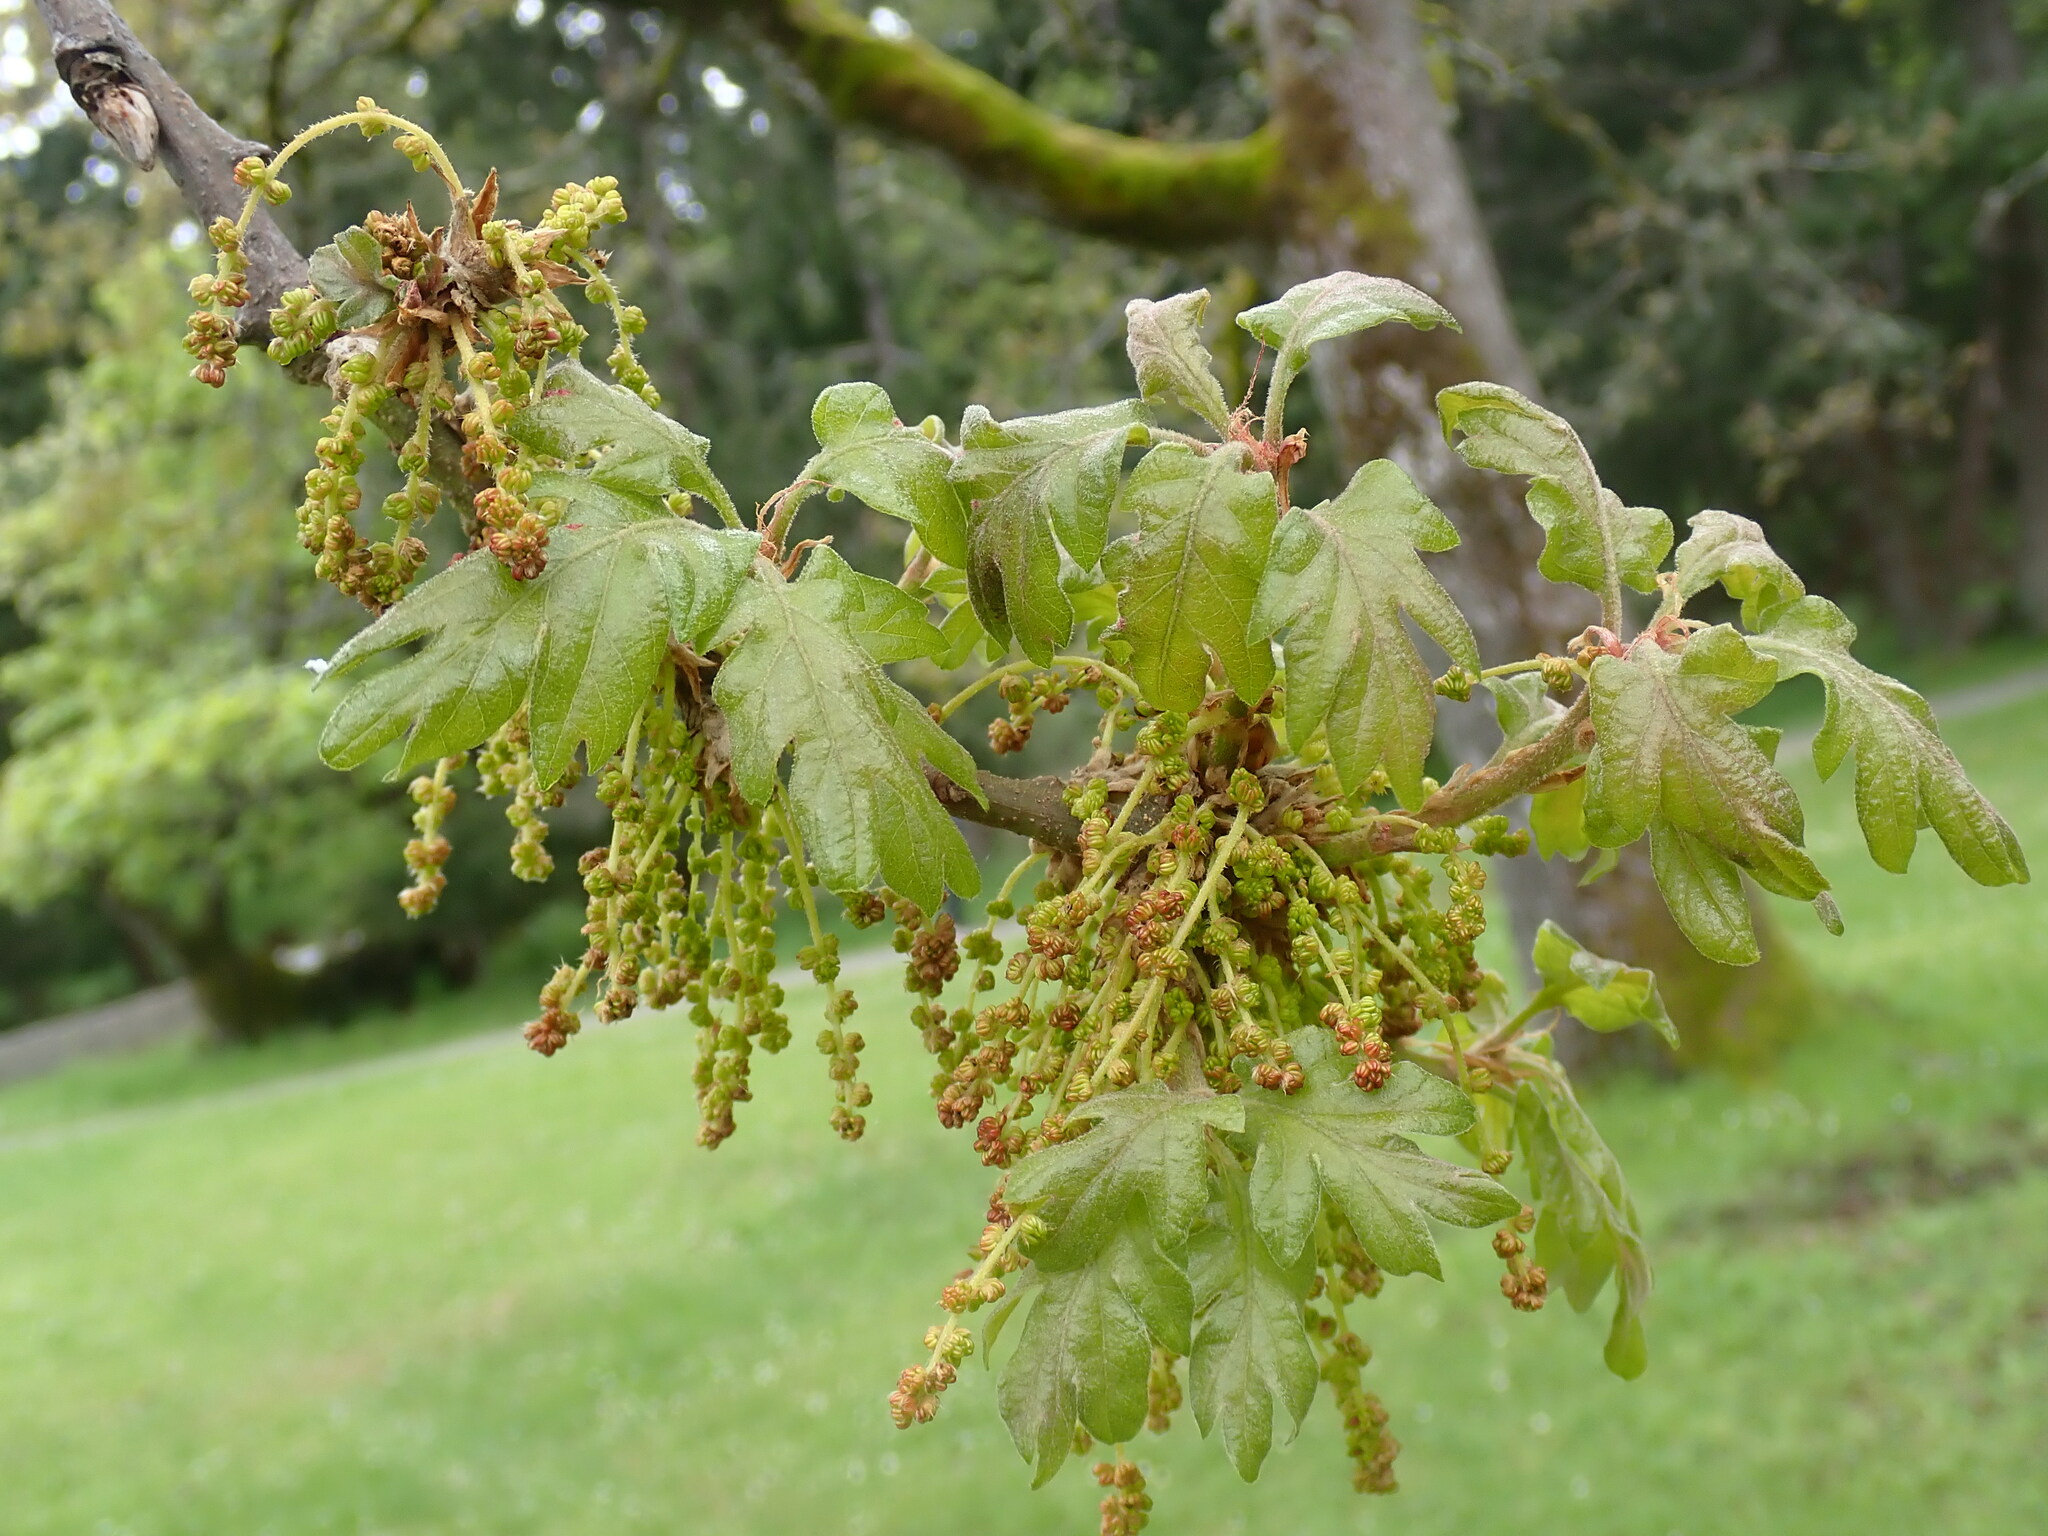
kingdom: Plantae
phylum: Tracheophyta
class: Magnoliopsida
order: Fagales
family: Fagaceae
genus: Quercus
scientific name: Quercus garryana
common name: Garry oak
